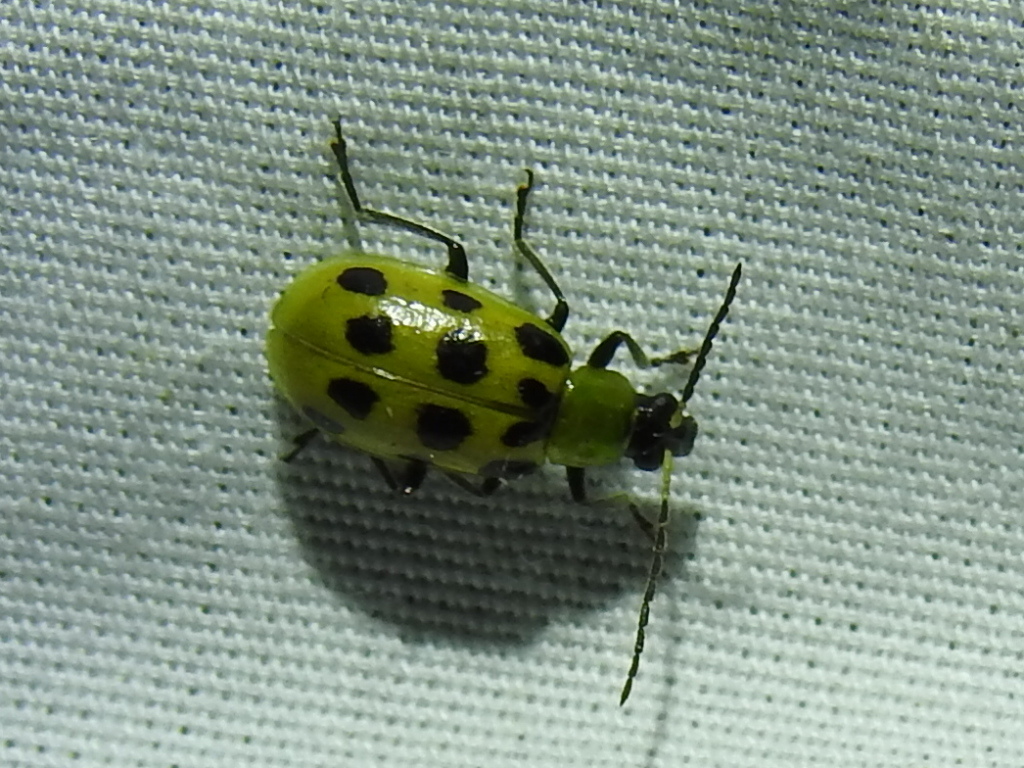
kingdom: Animalia
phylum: Arthropoda
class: Insecta
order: Coleoptera
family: Chrysomelidae
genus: Diabrotica
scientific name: Diabrotica undecimpunctata
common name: Spotted cucumber beetle
